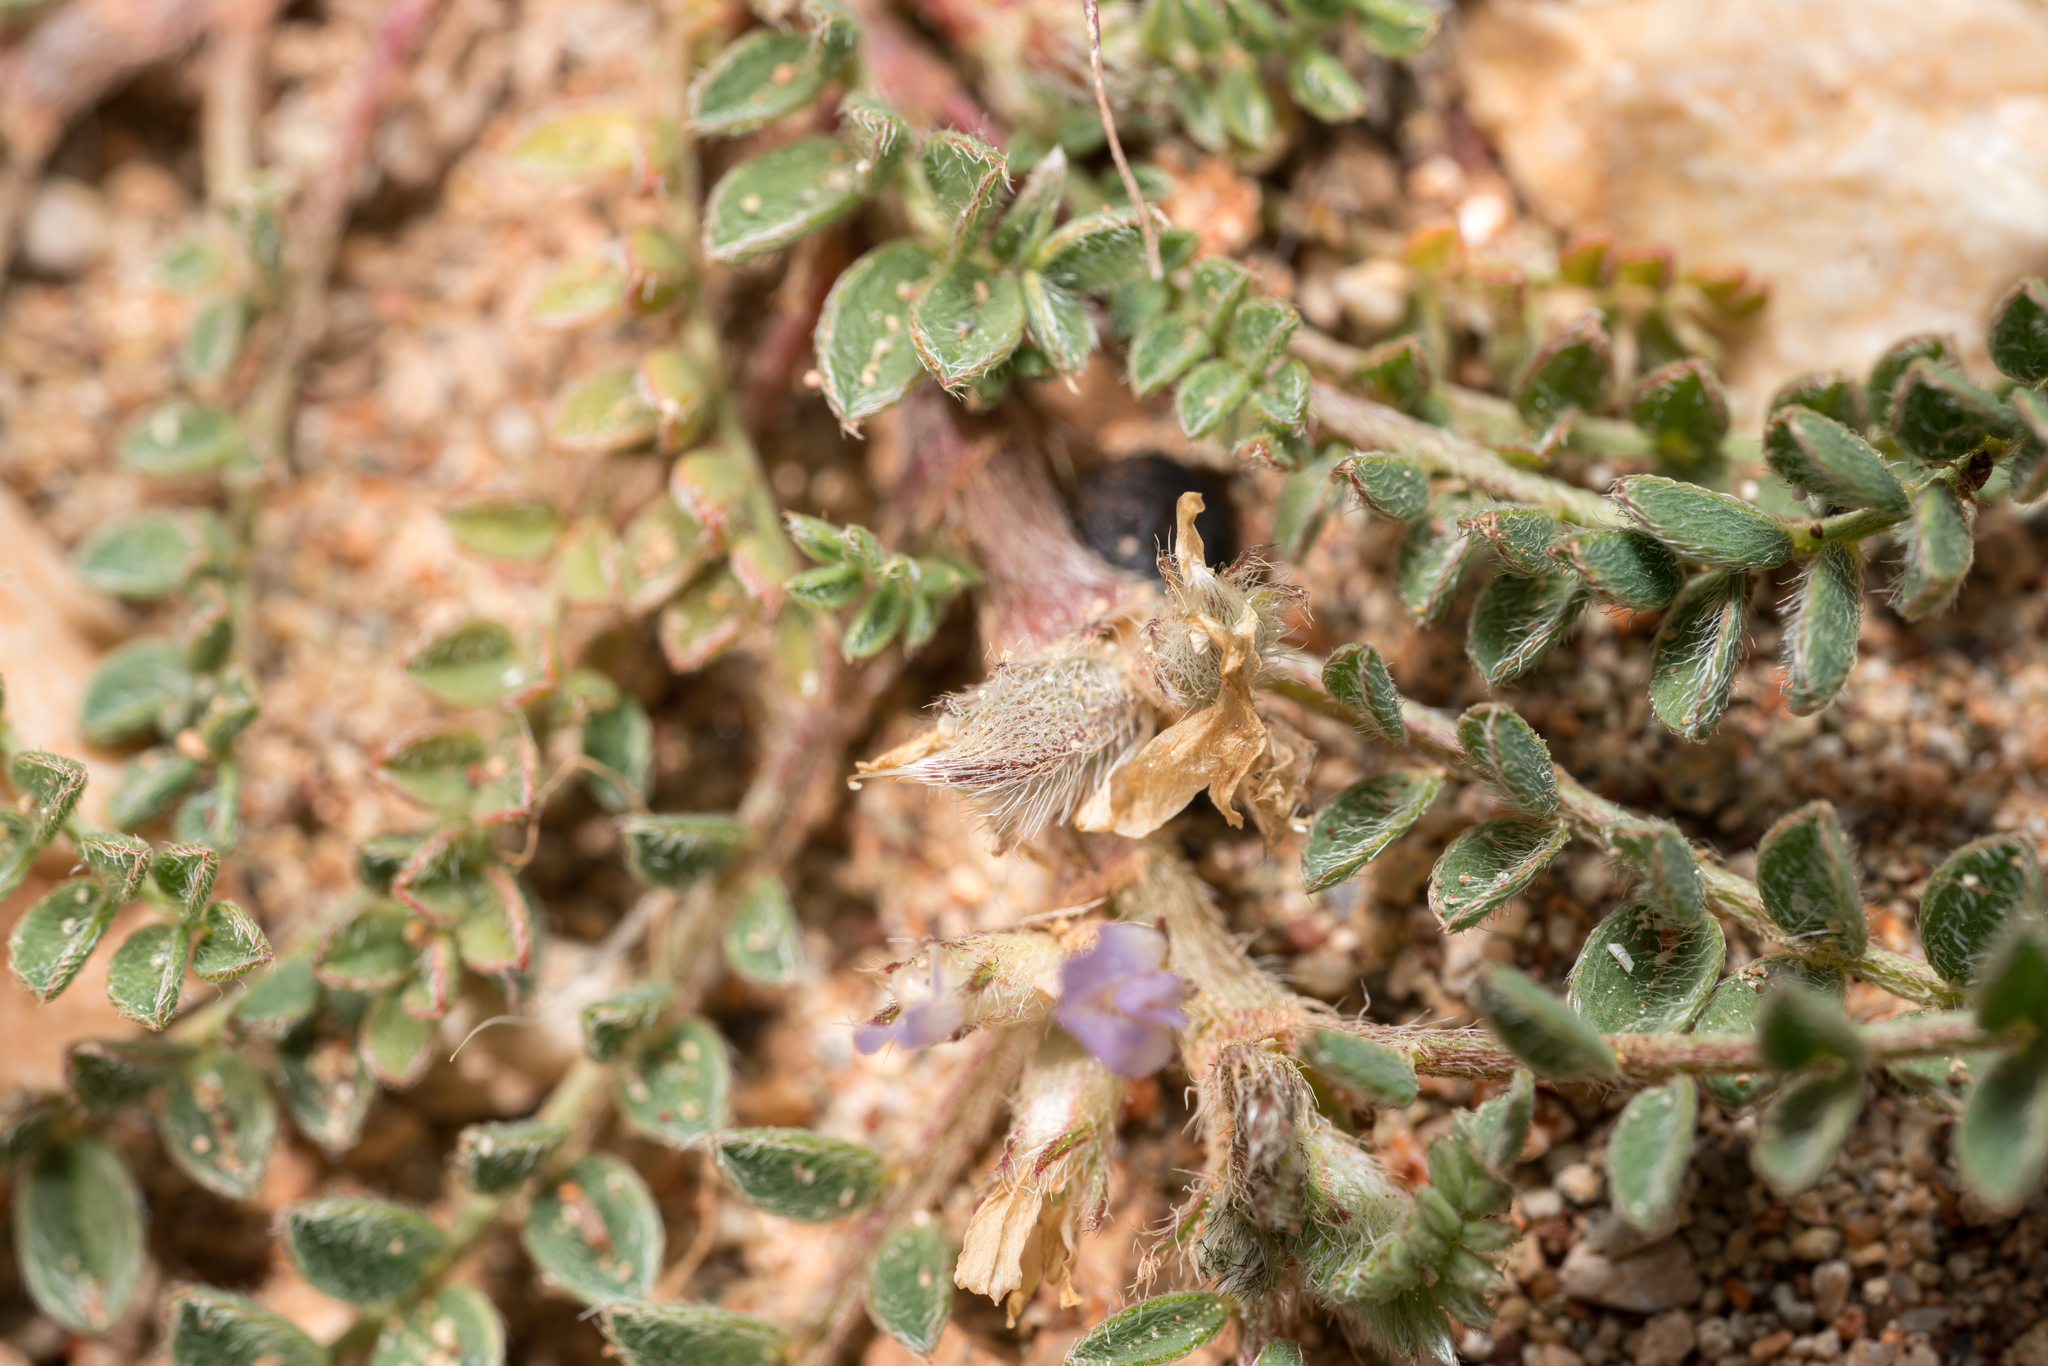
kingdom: Plantae
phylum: Tracheophyta
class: Magnoliopsida
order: Fabales
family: Fabaceae
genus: Astragalus
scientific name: Astragalus sinaicus
